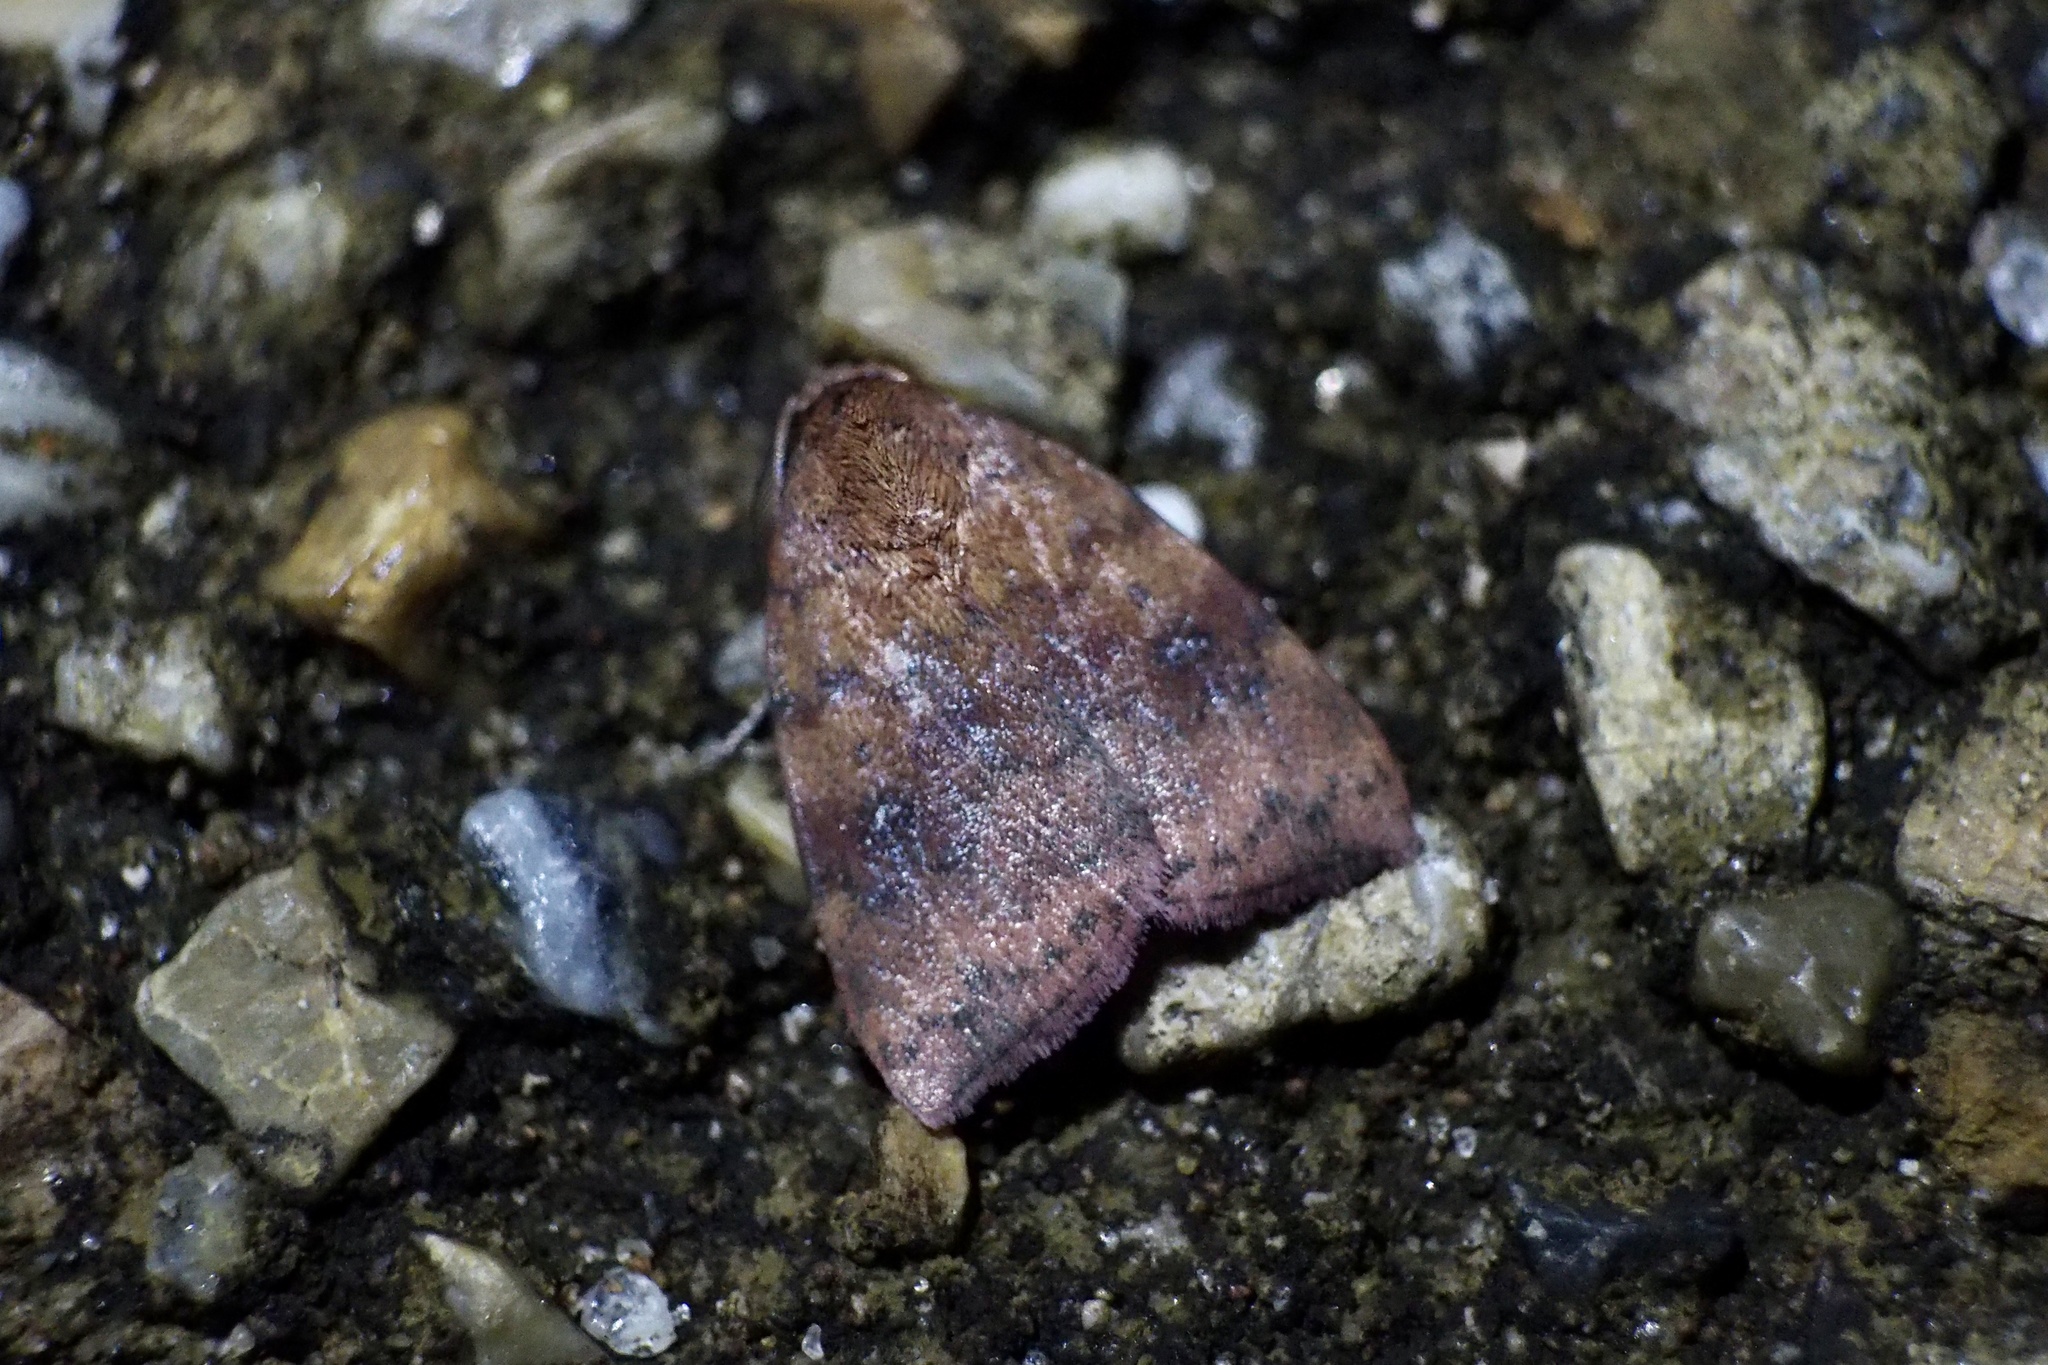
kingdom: Animalia
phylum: Arthropoda
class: Insecta
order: Lepidoptera
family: Nolidae
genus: Gelastocera
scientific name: Gelastocera kotshubeji
